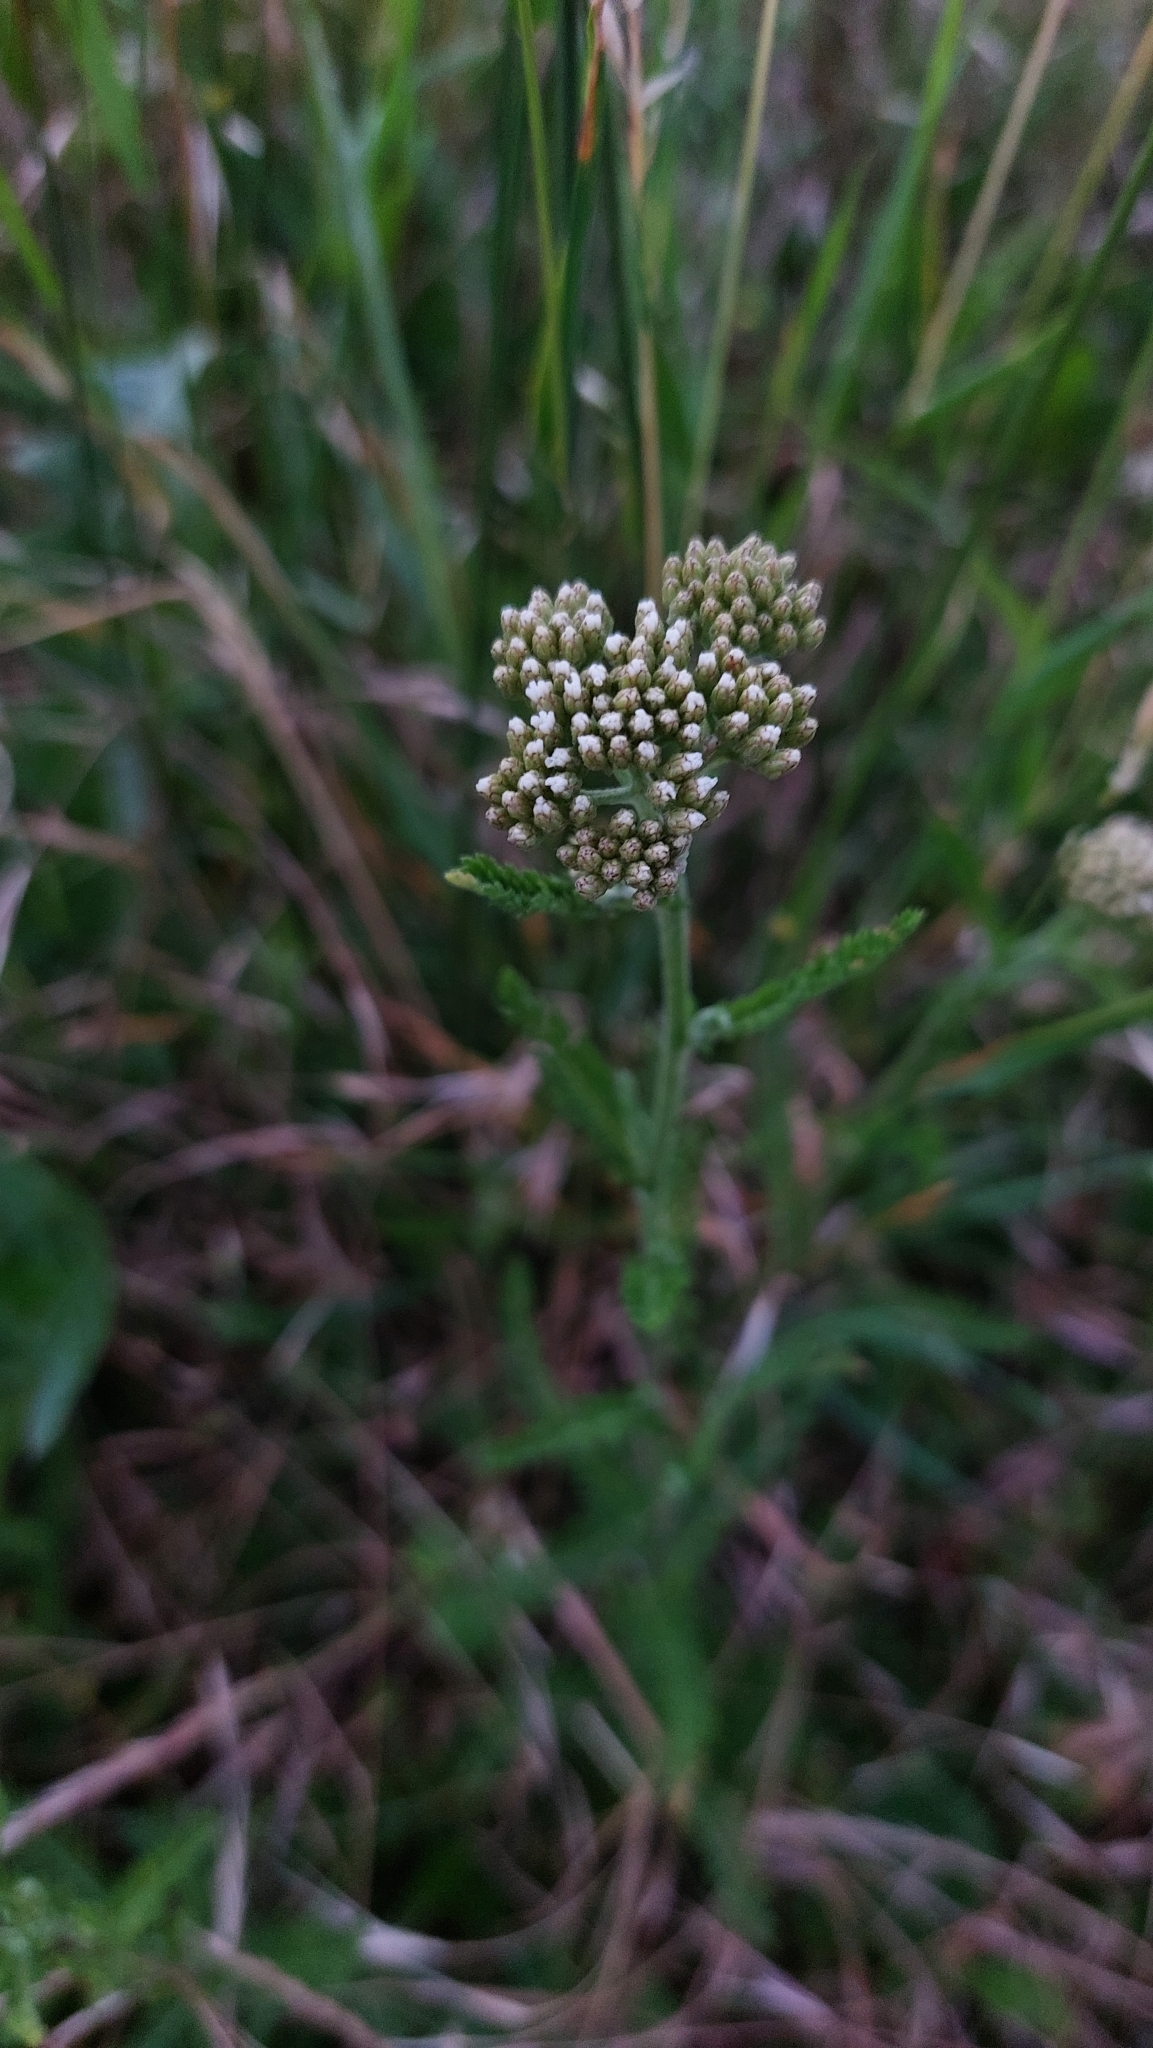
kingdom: Plantae
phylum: Tracheophyta
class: Magnoliopsida
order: Asterales
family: Asteraceae
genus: Achillea
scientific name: Achillea millefolium
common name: Yarrow
